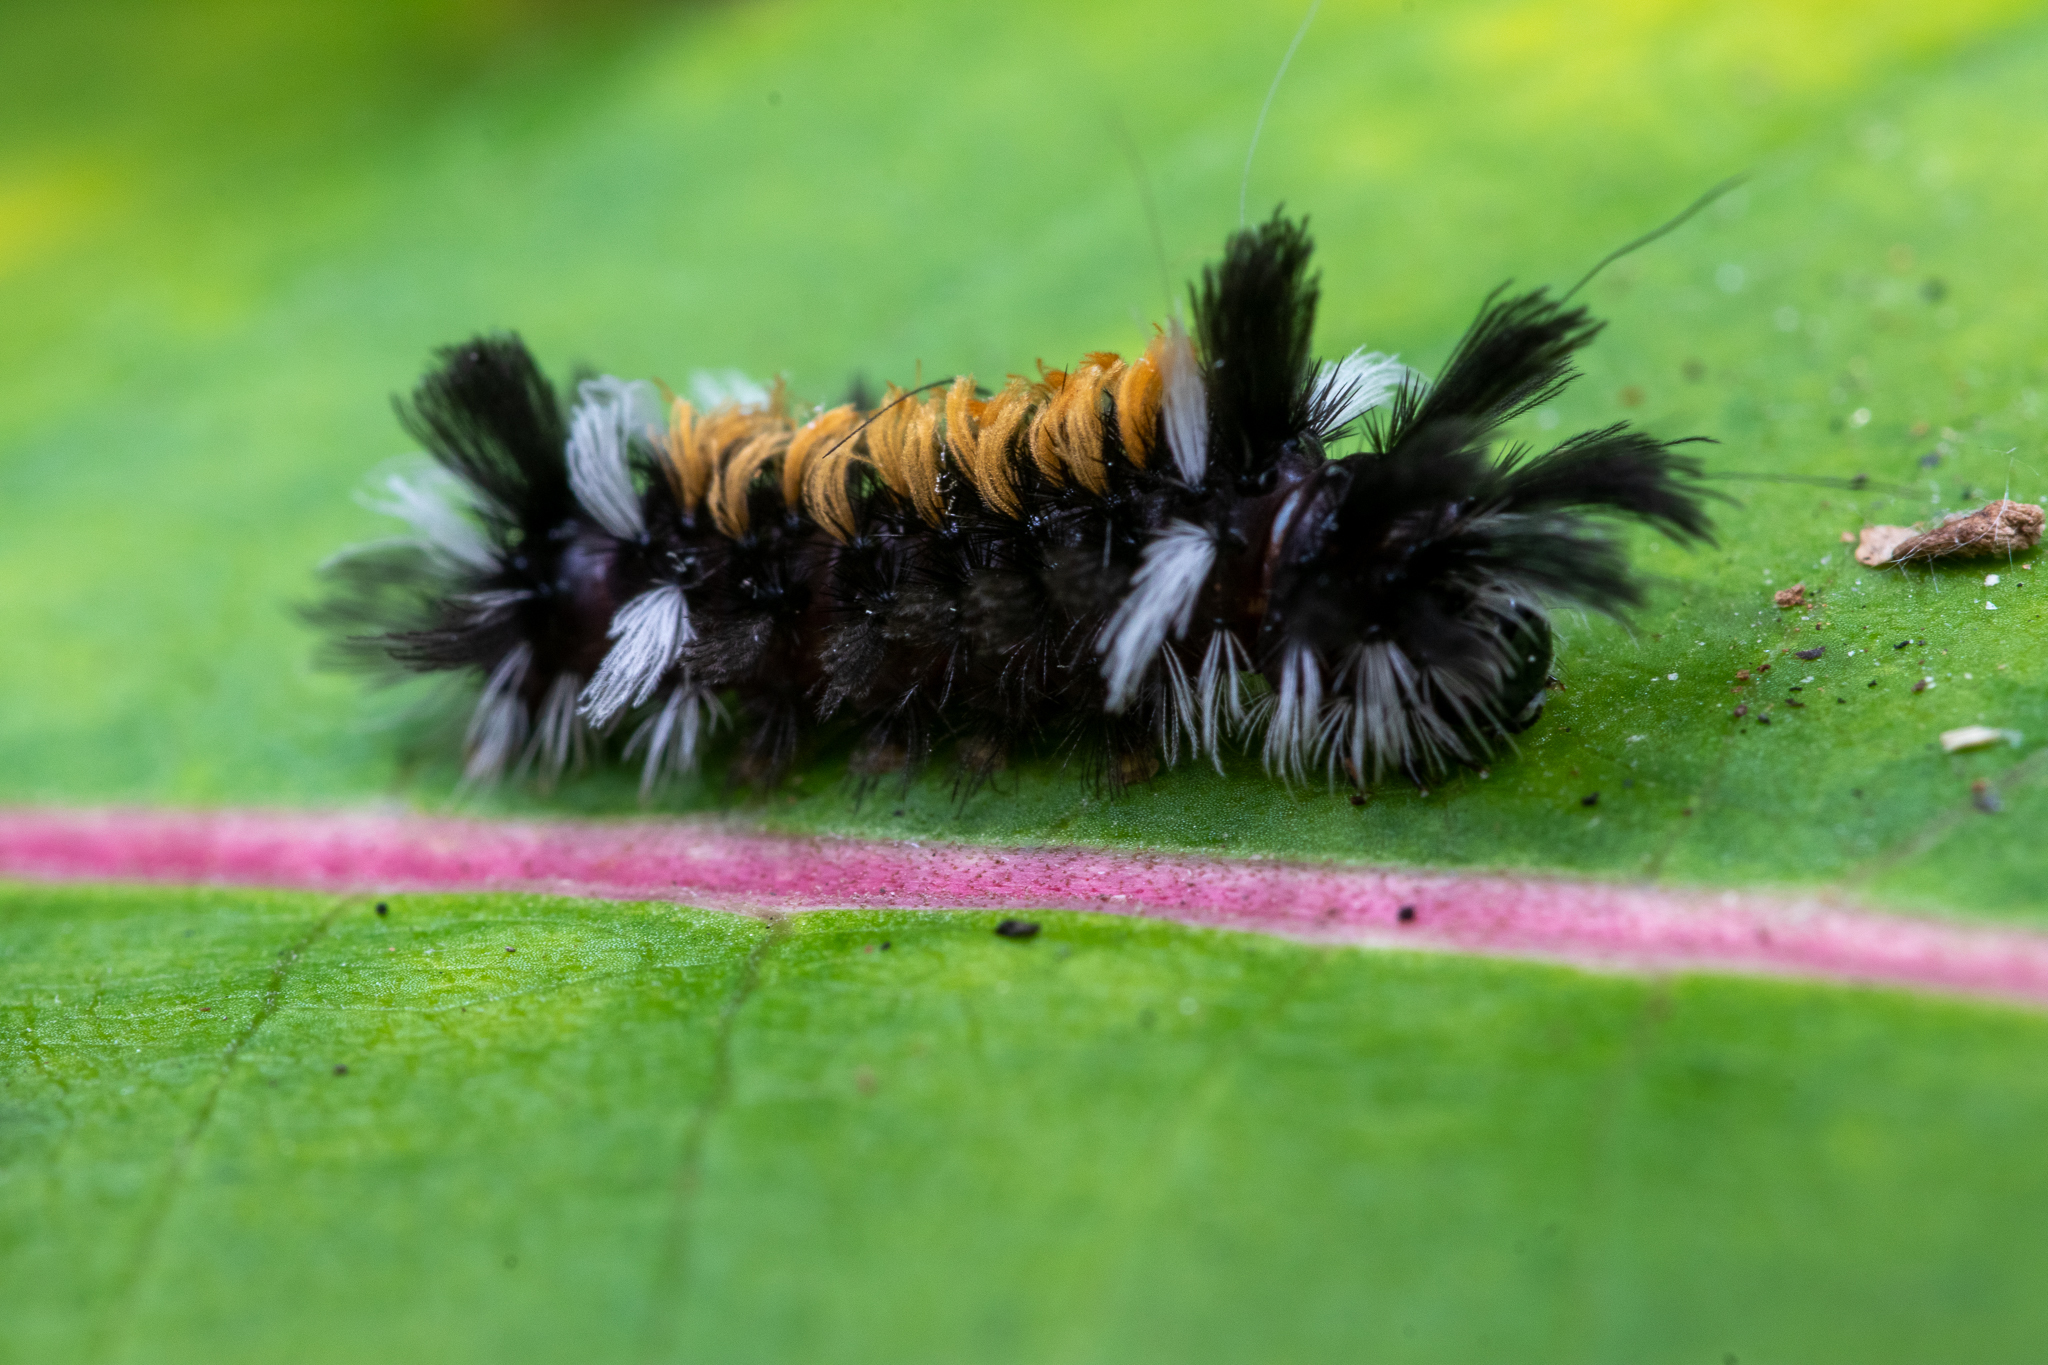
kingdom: Animalia
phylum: Arthropoda
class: Insecta
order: Lepidoptera
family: Erebidae
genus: Euchaetes
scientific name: Euchaetes egle
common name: Milkweed tussock moth
